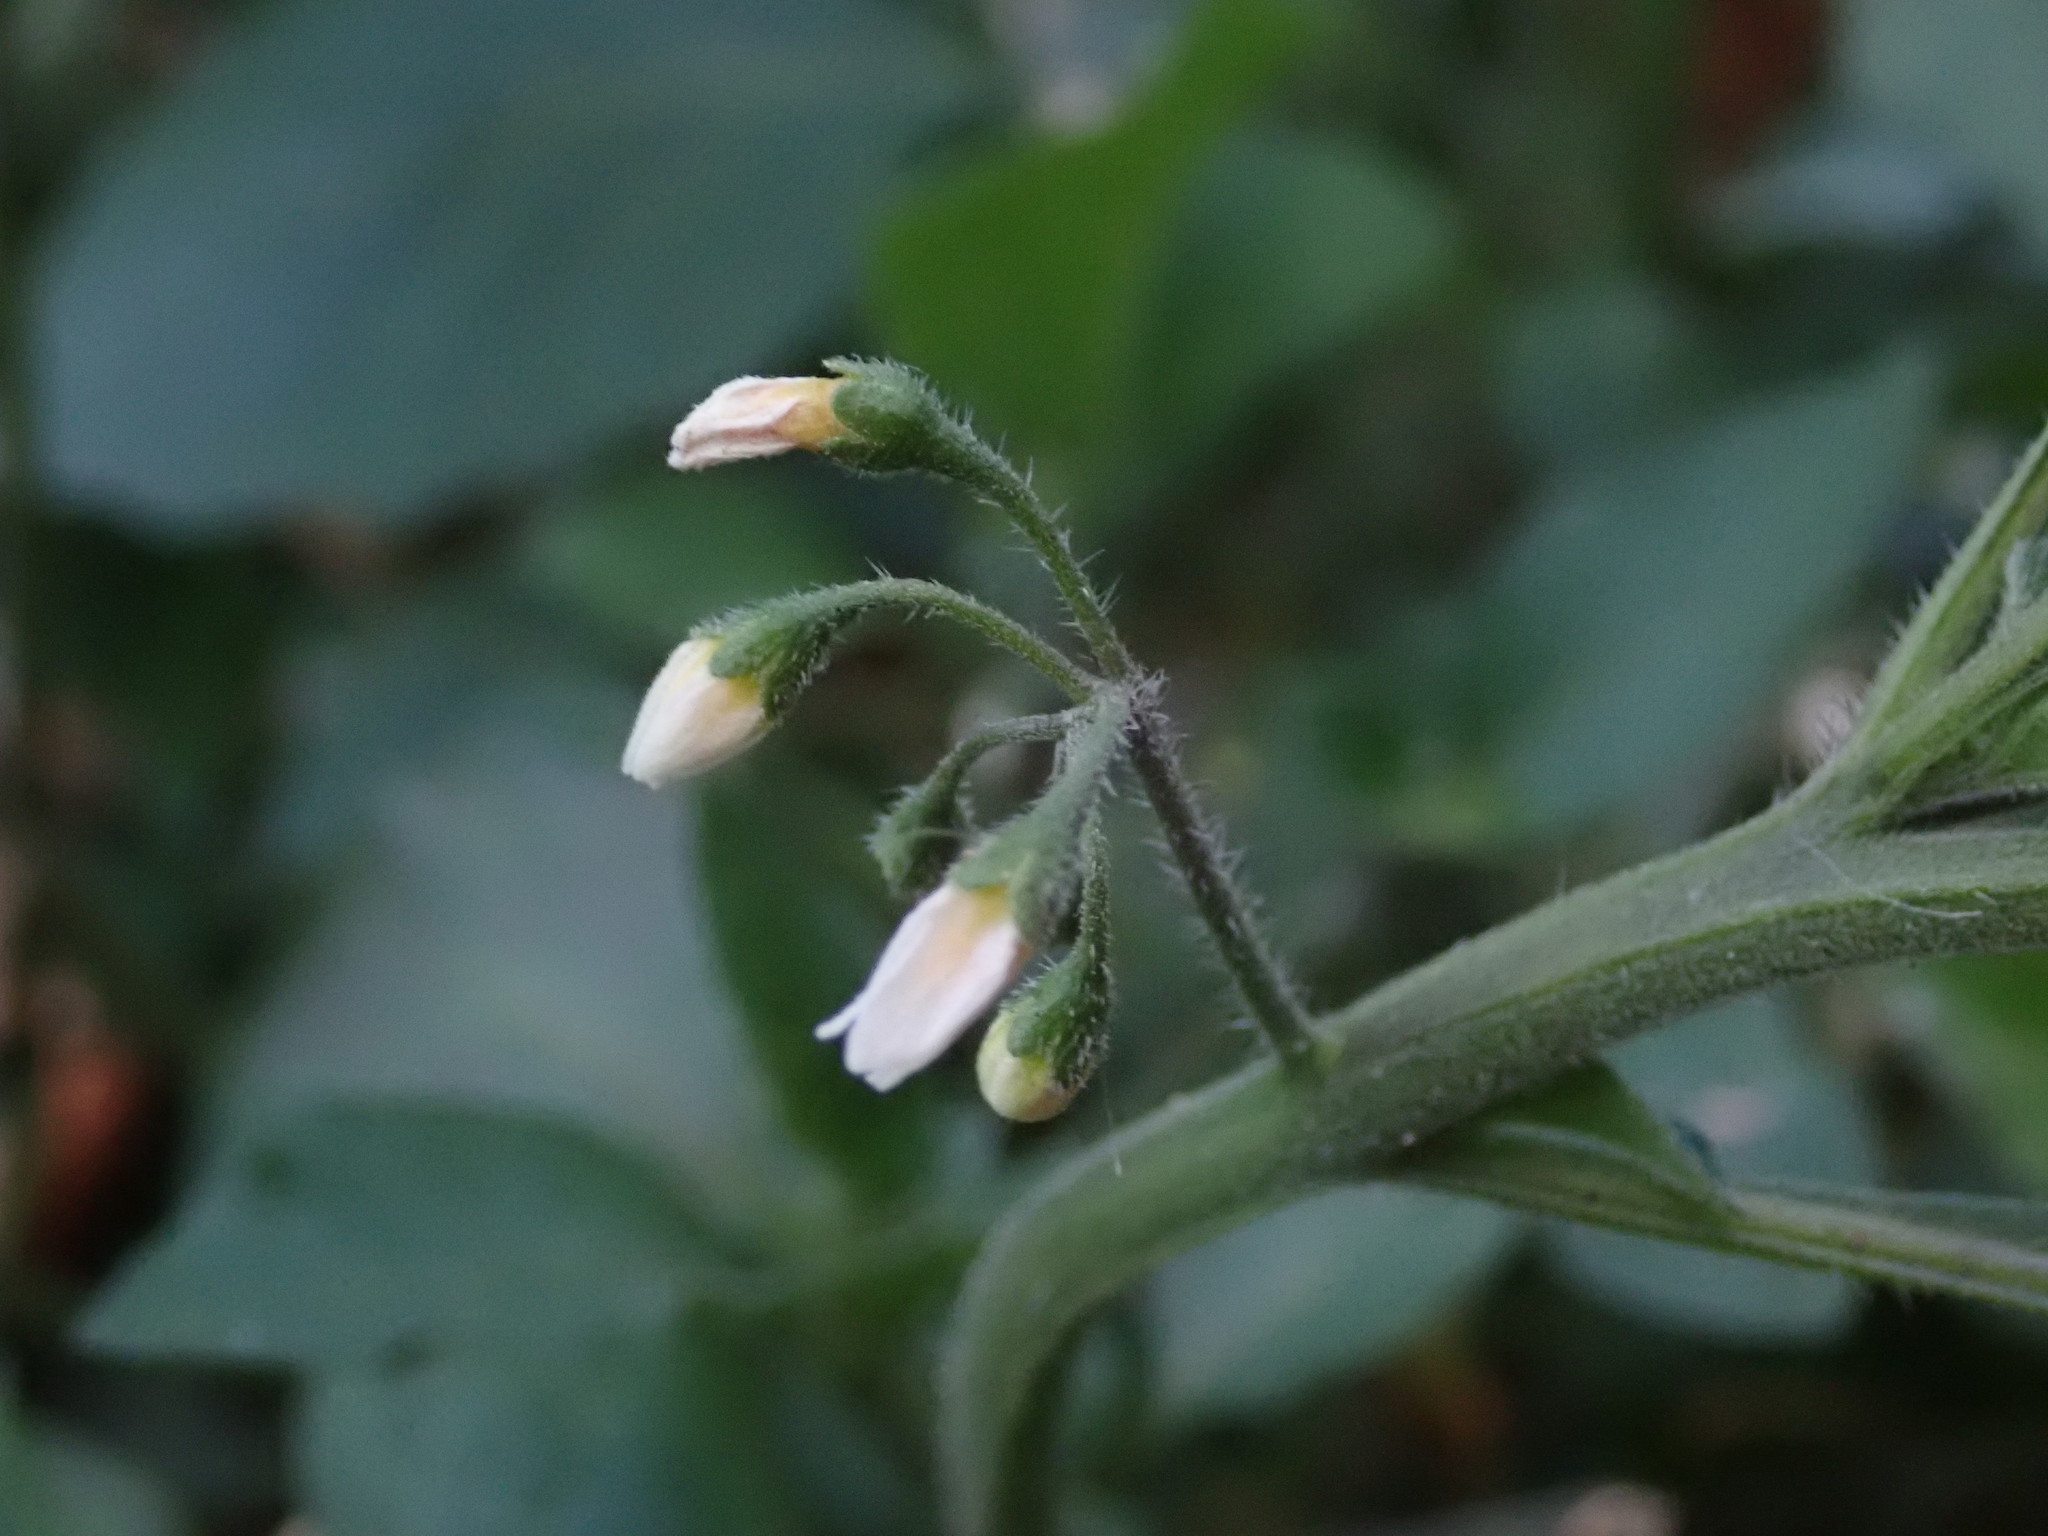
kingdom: Plantae
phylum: Tracheophyta
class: Magnoliopsida
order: Solanales
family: Solanaceae
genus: Solanum
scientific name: Solanum nigrum
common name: Black nightshade
